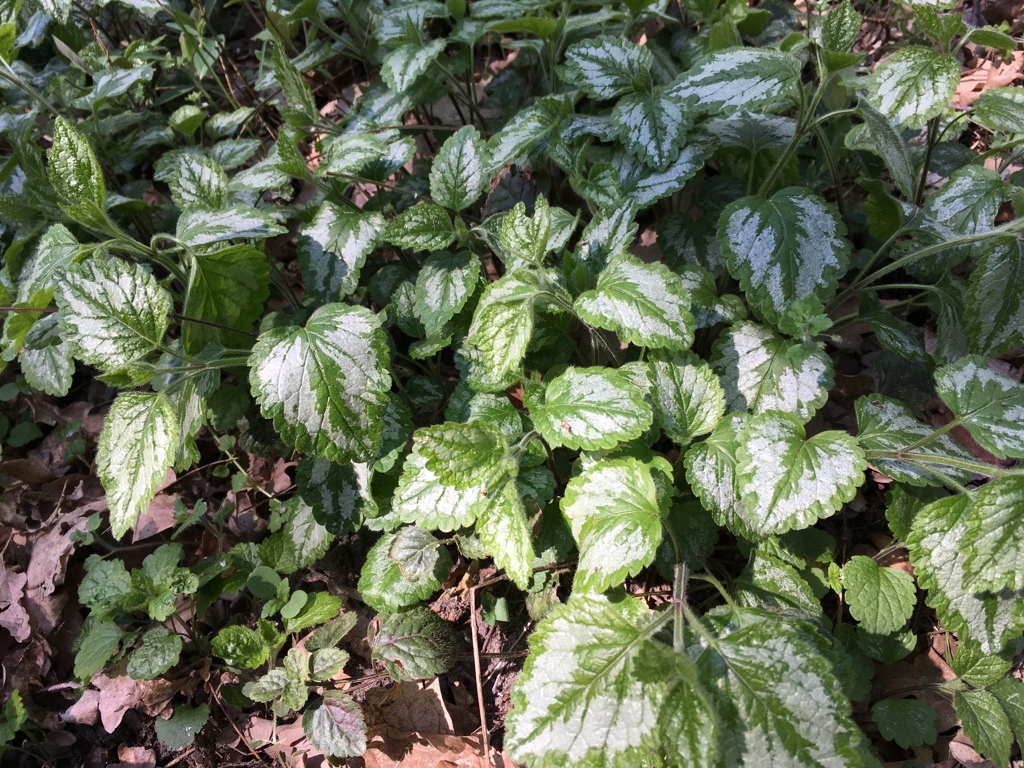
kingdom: Plantae
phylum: Tracheophyta
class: Magnoliopsida
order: Lamiales
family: Lamiaceae
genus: Lamium
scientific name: Lamium galeobdolon
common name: Yellow archangel
